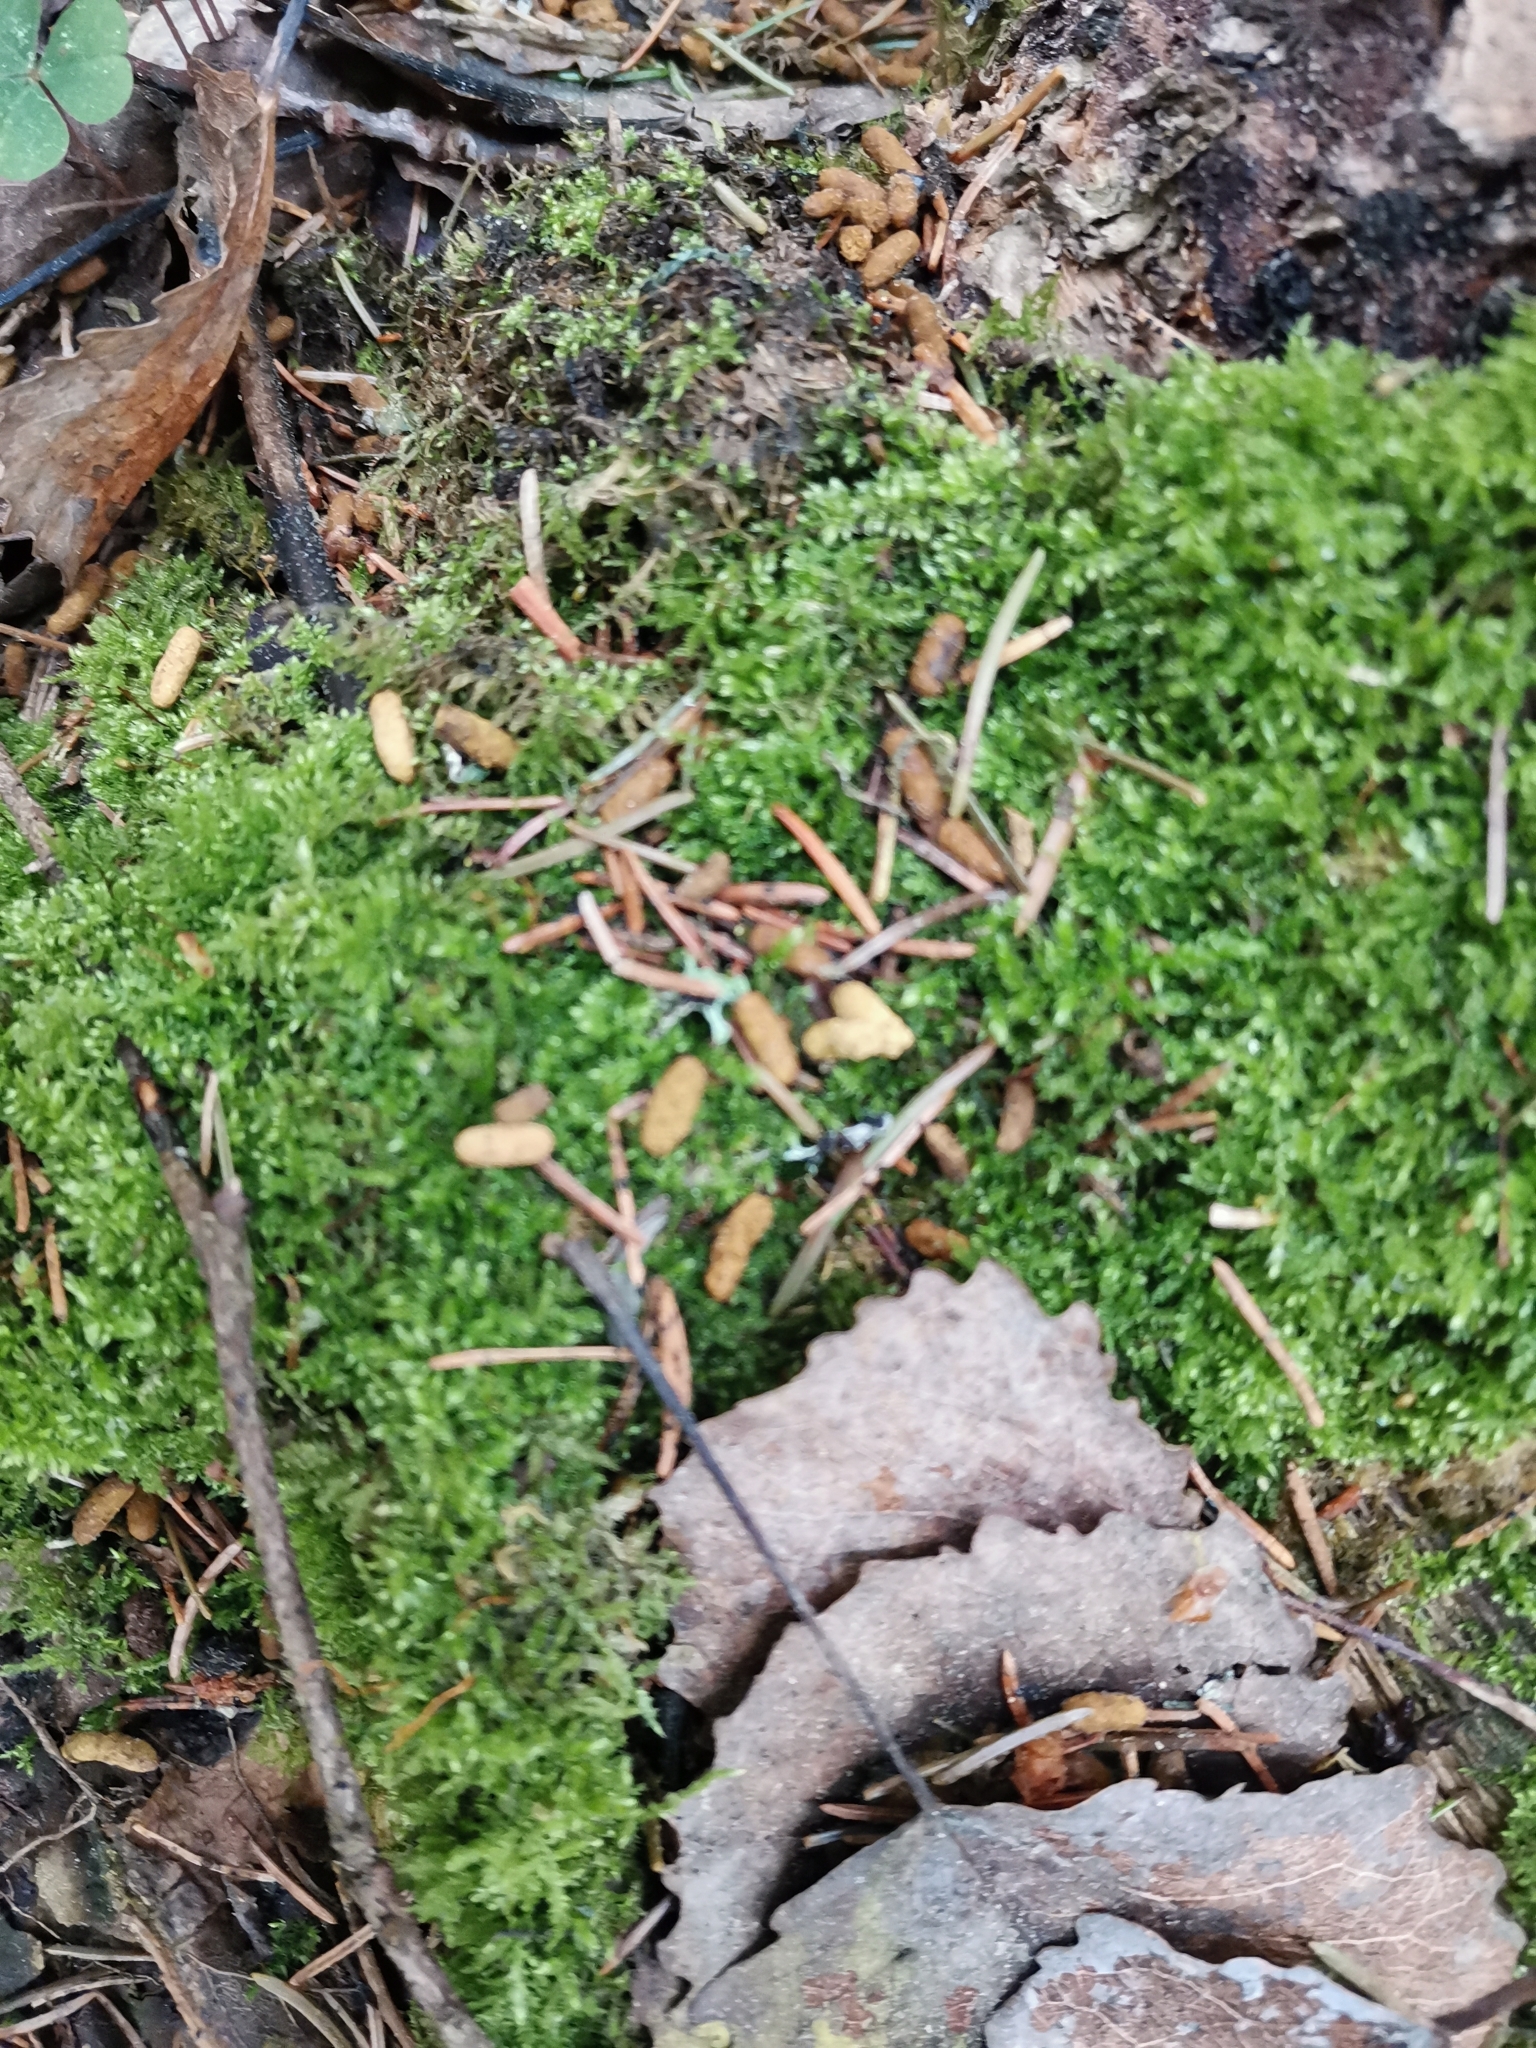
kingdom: Animalia
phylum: Chordata
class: Mammalia
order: Rodentia
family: Sciuridae
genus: Pteromys
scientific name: Pteromys volans
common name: Siberian flying squirrel
